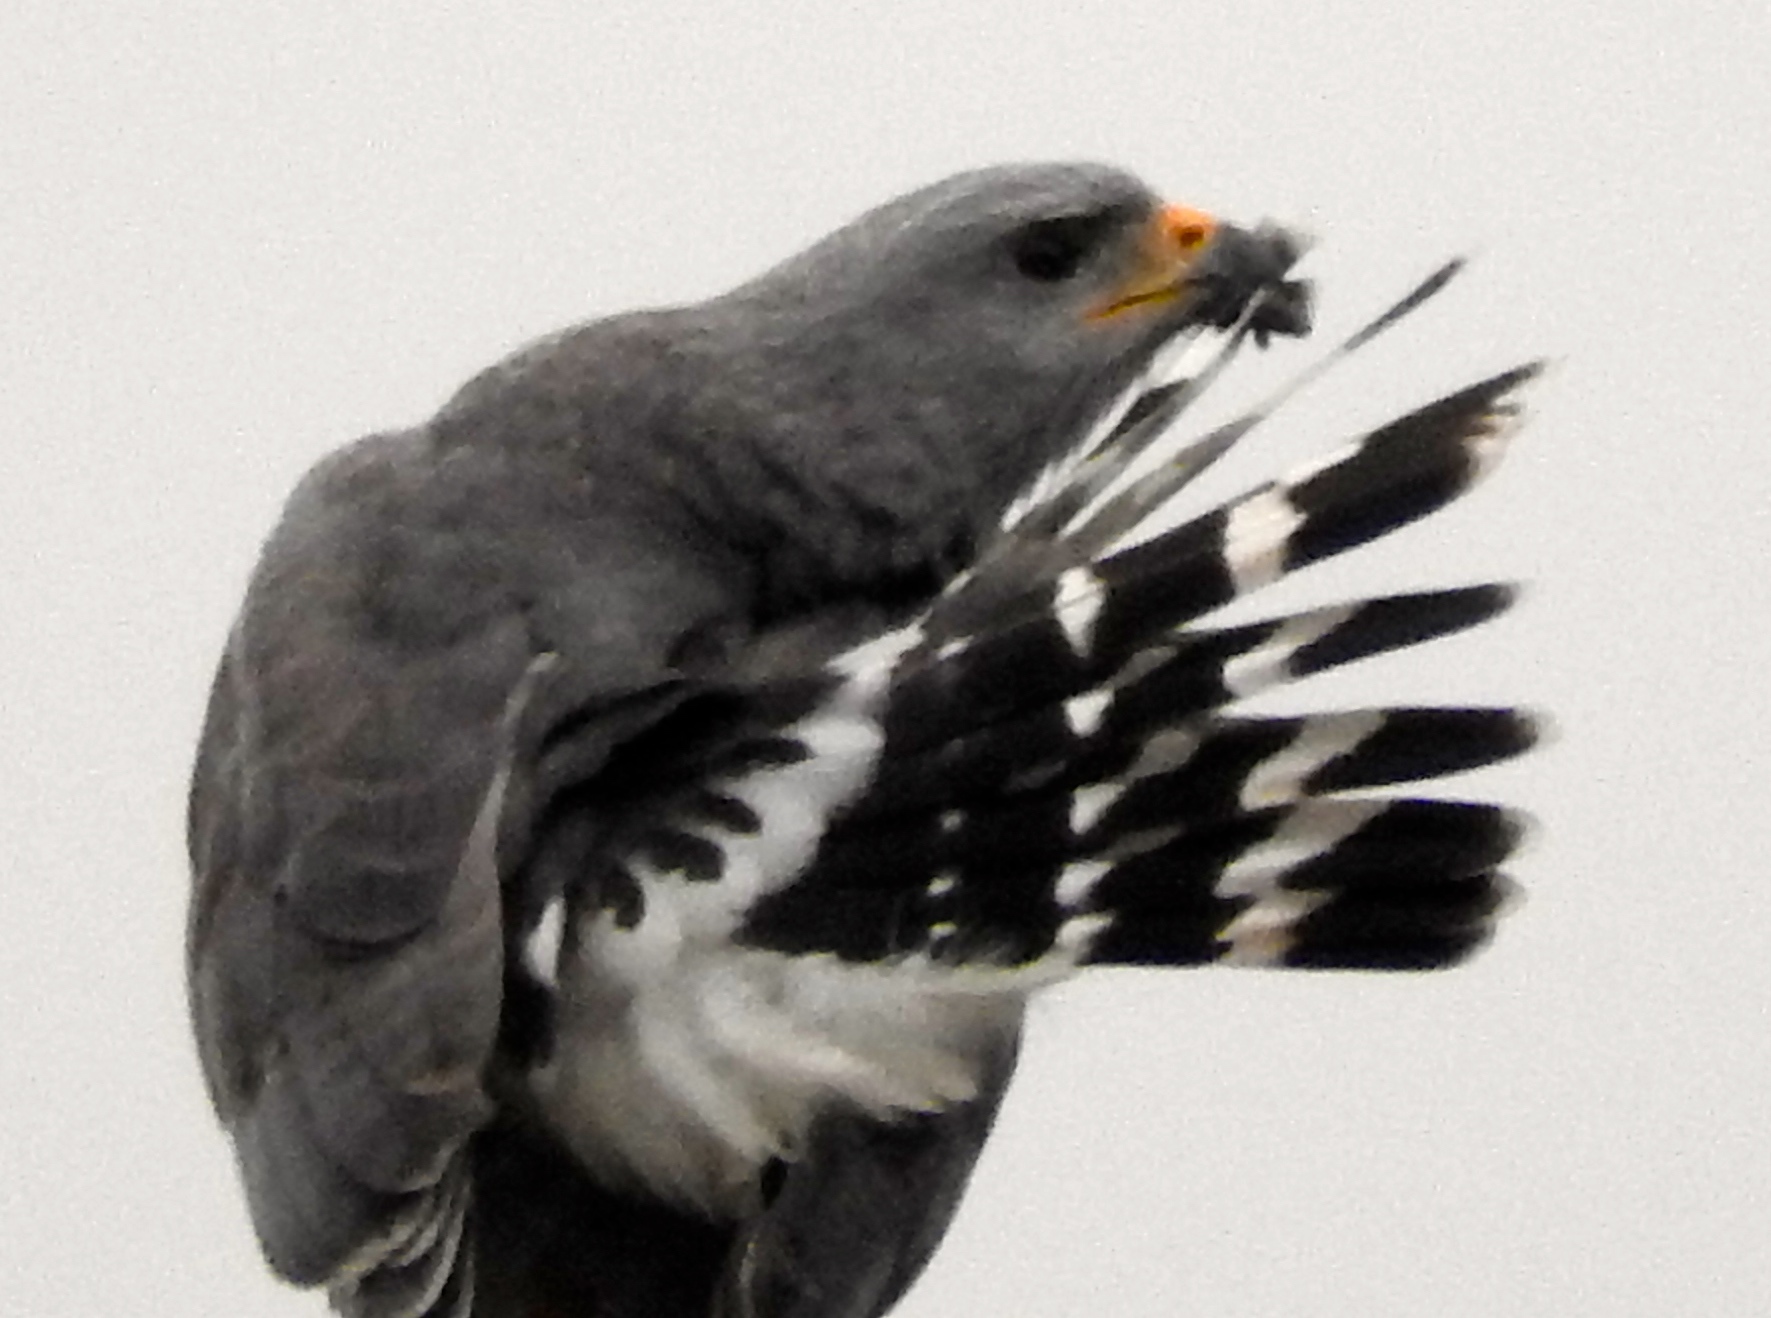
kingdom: Animalia
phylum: Chordata
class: Aves
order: Accipitriformes
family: Accipitridae
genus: Buteo
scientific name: Buteo nitidus
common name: Grey-lined hawk
